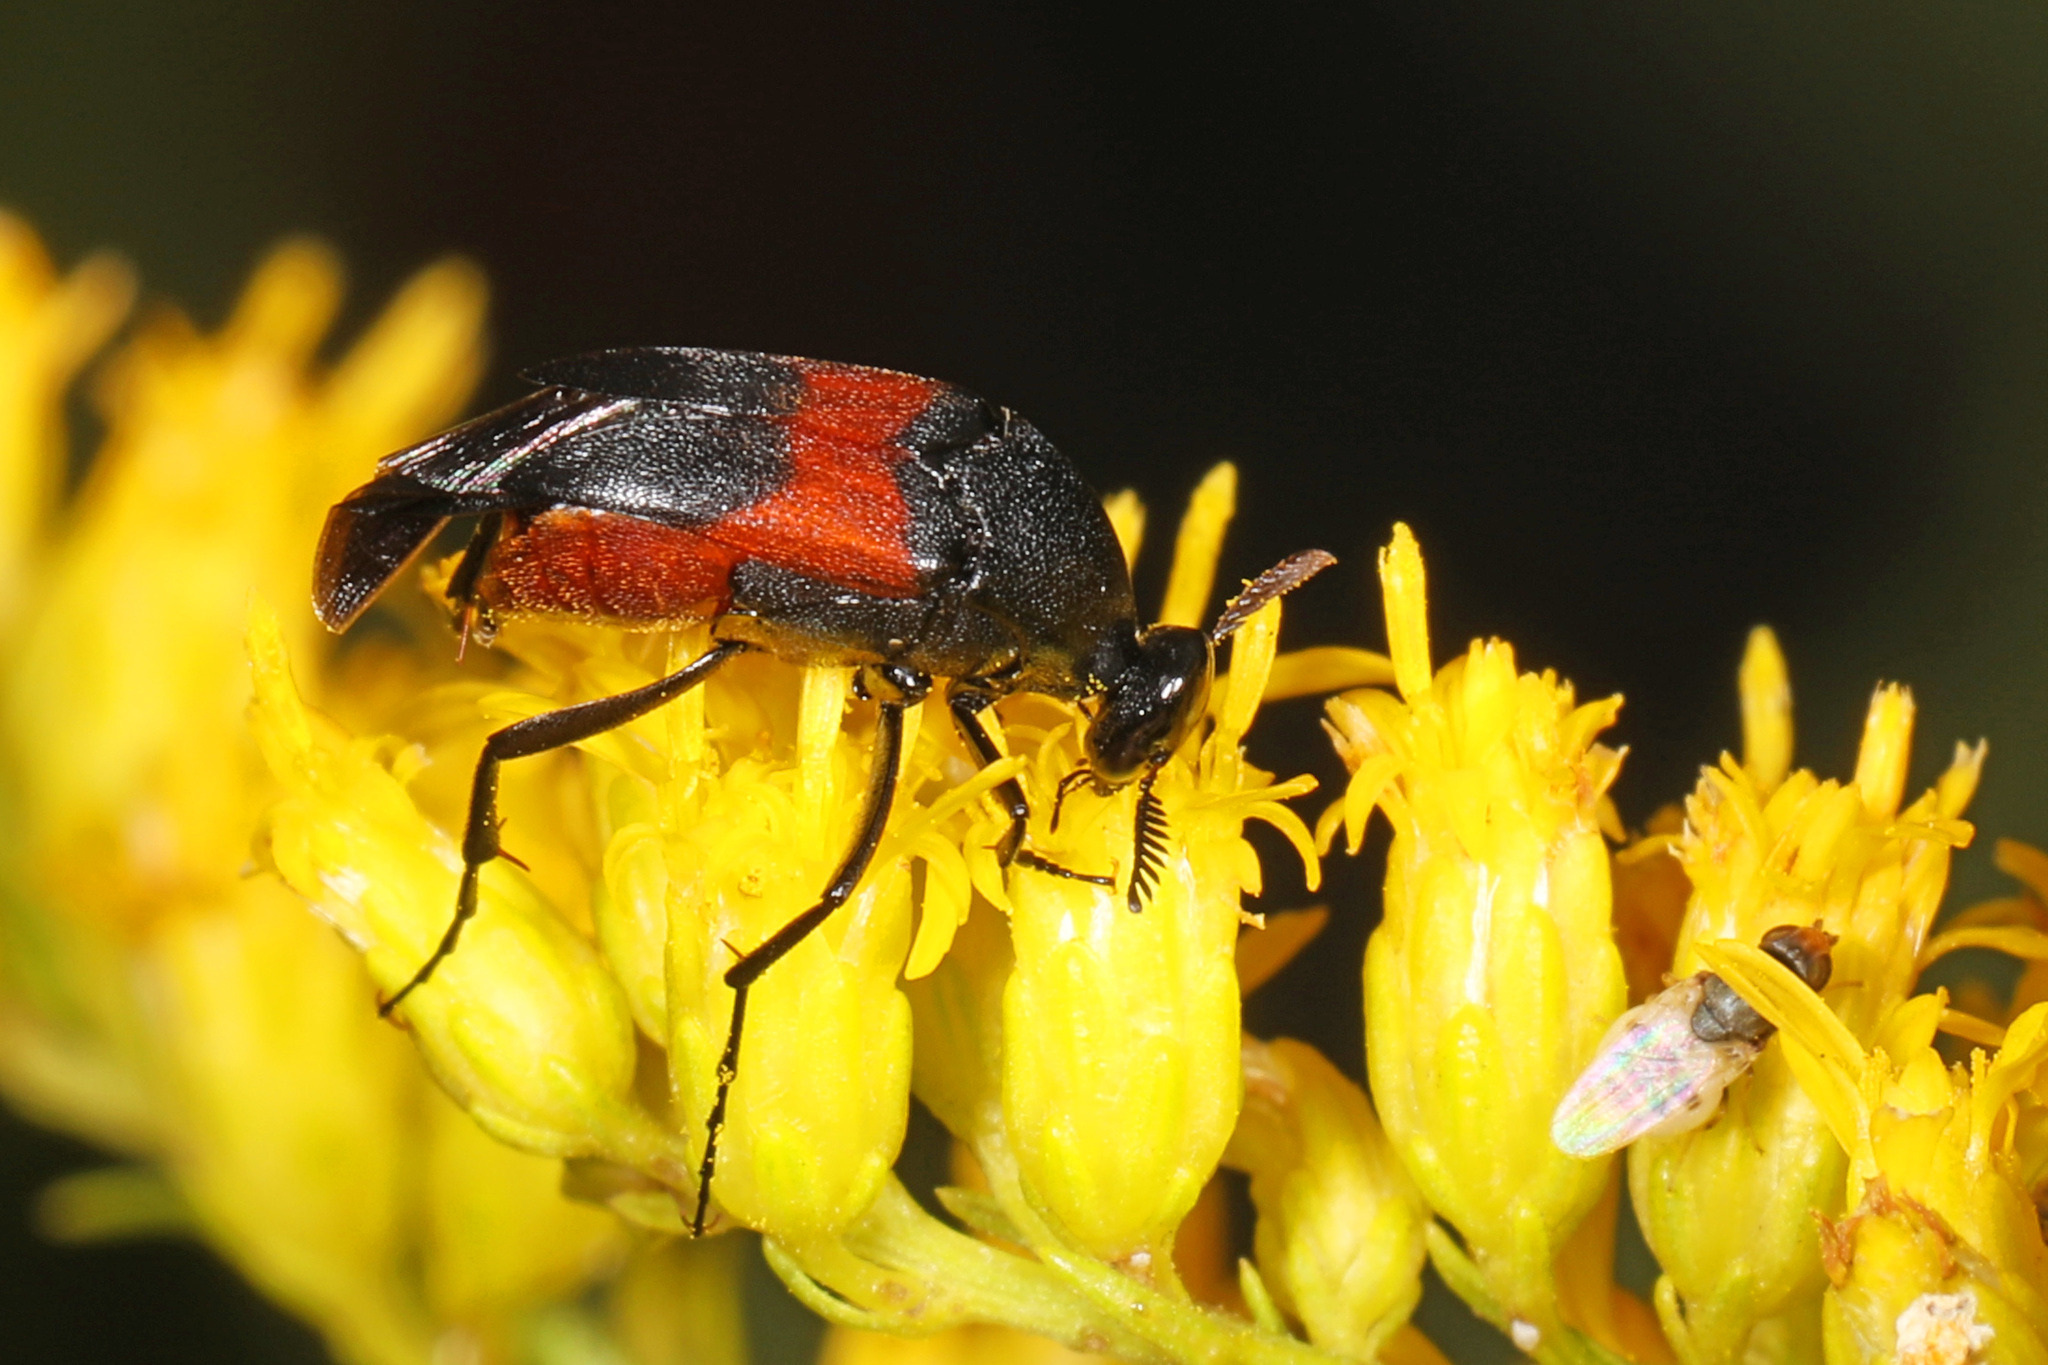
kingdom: Animalia
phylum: Arthropoda
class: Insecta
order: Coleoptera
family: Ripiphoridae
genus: Macrosiagon
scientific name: Macrosiagon cruentum
